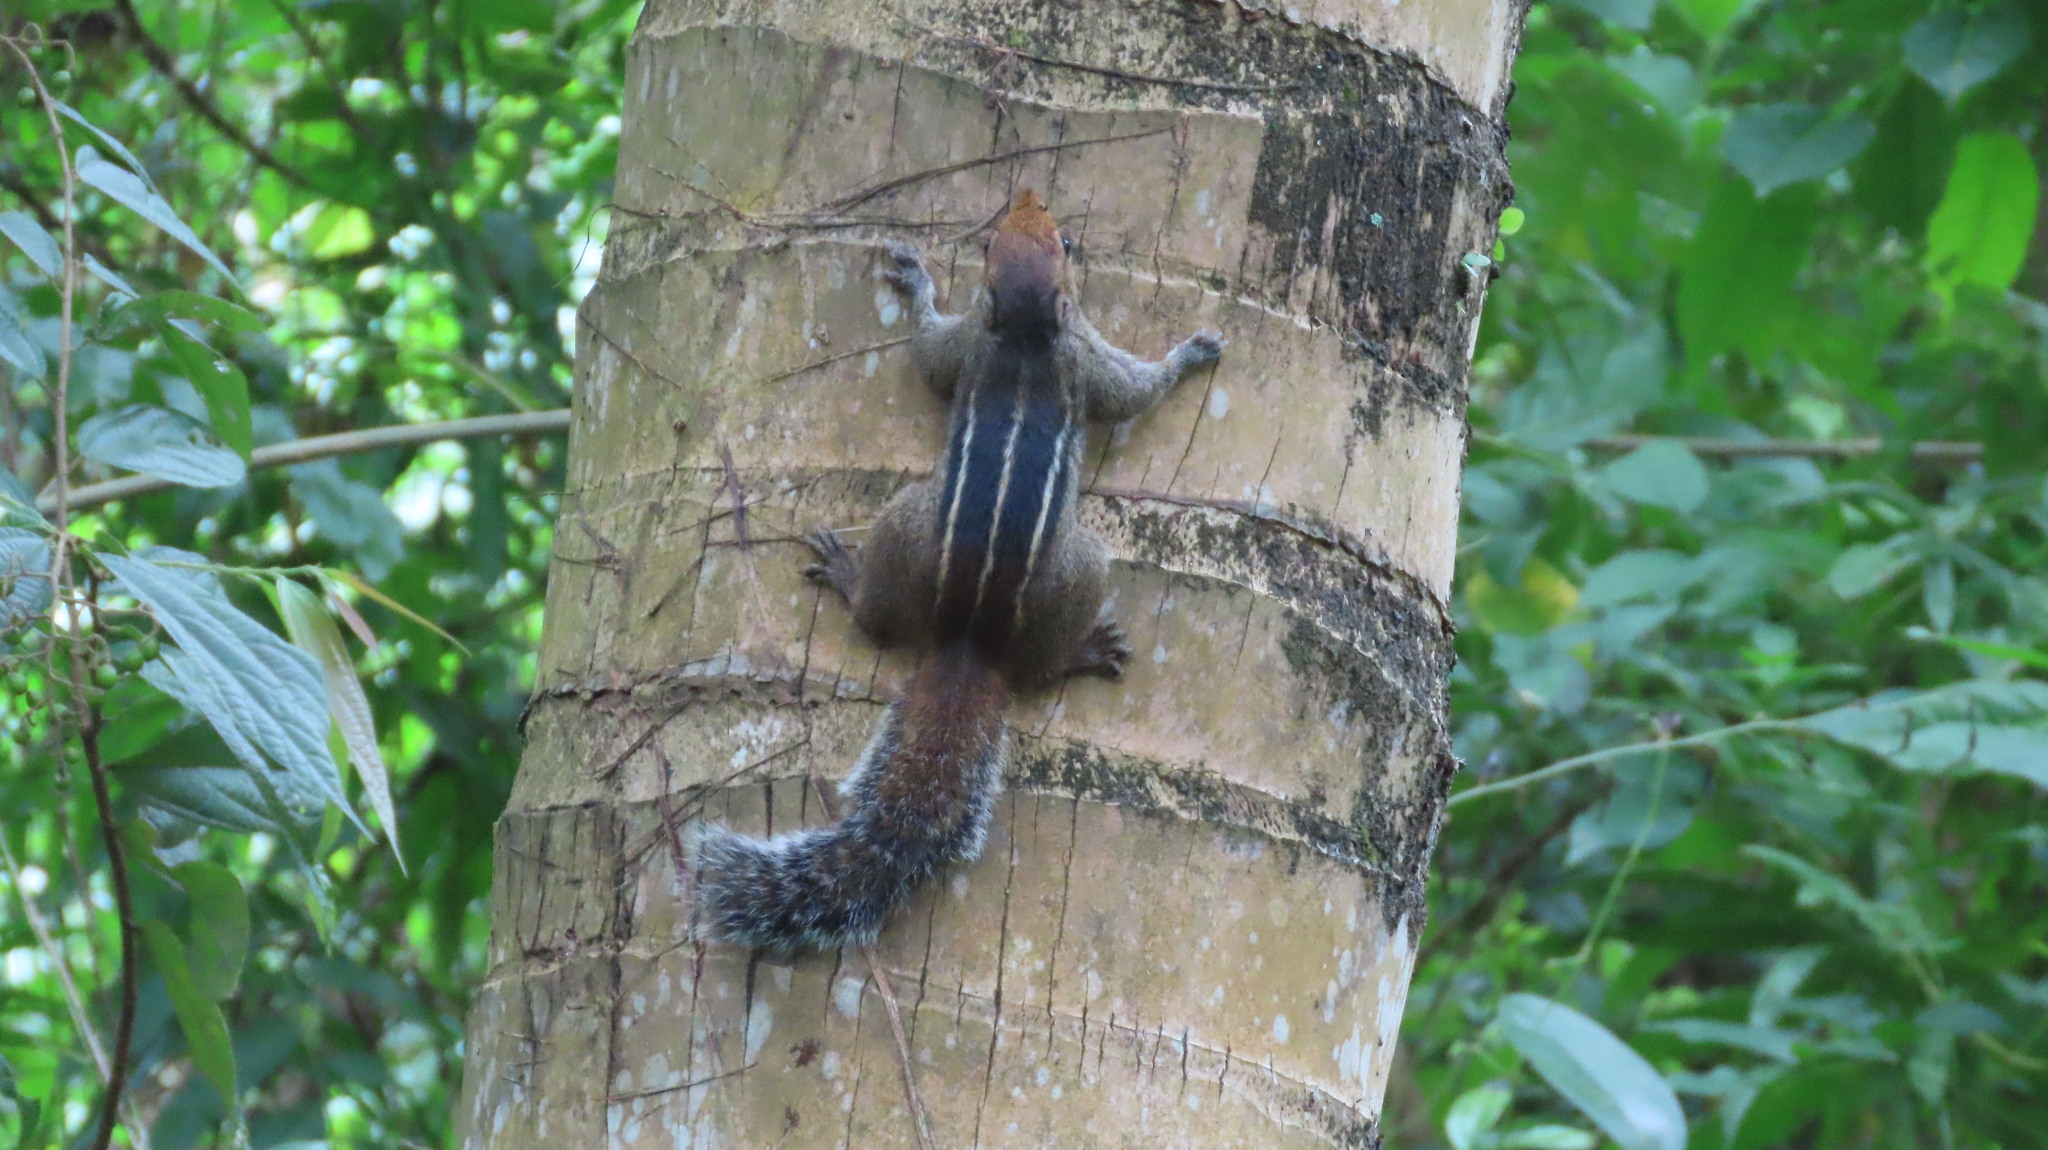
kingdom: Animalia
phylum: Chordata
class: Mammalia
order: Rodentia
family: Sciuridae
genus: Funambulus
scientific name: Funambulus tristriatus
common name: Jungle palm squirrel
